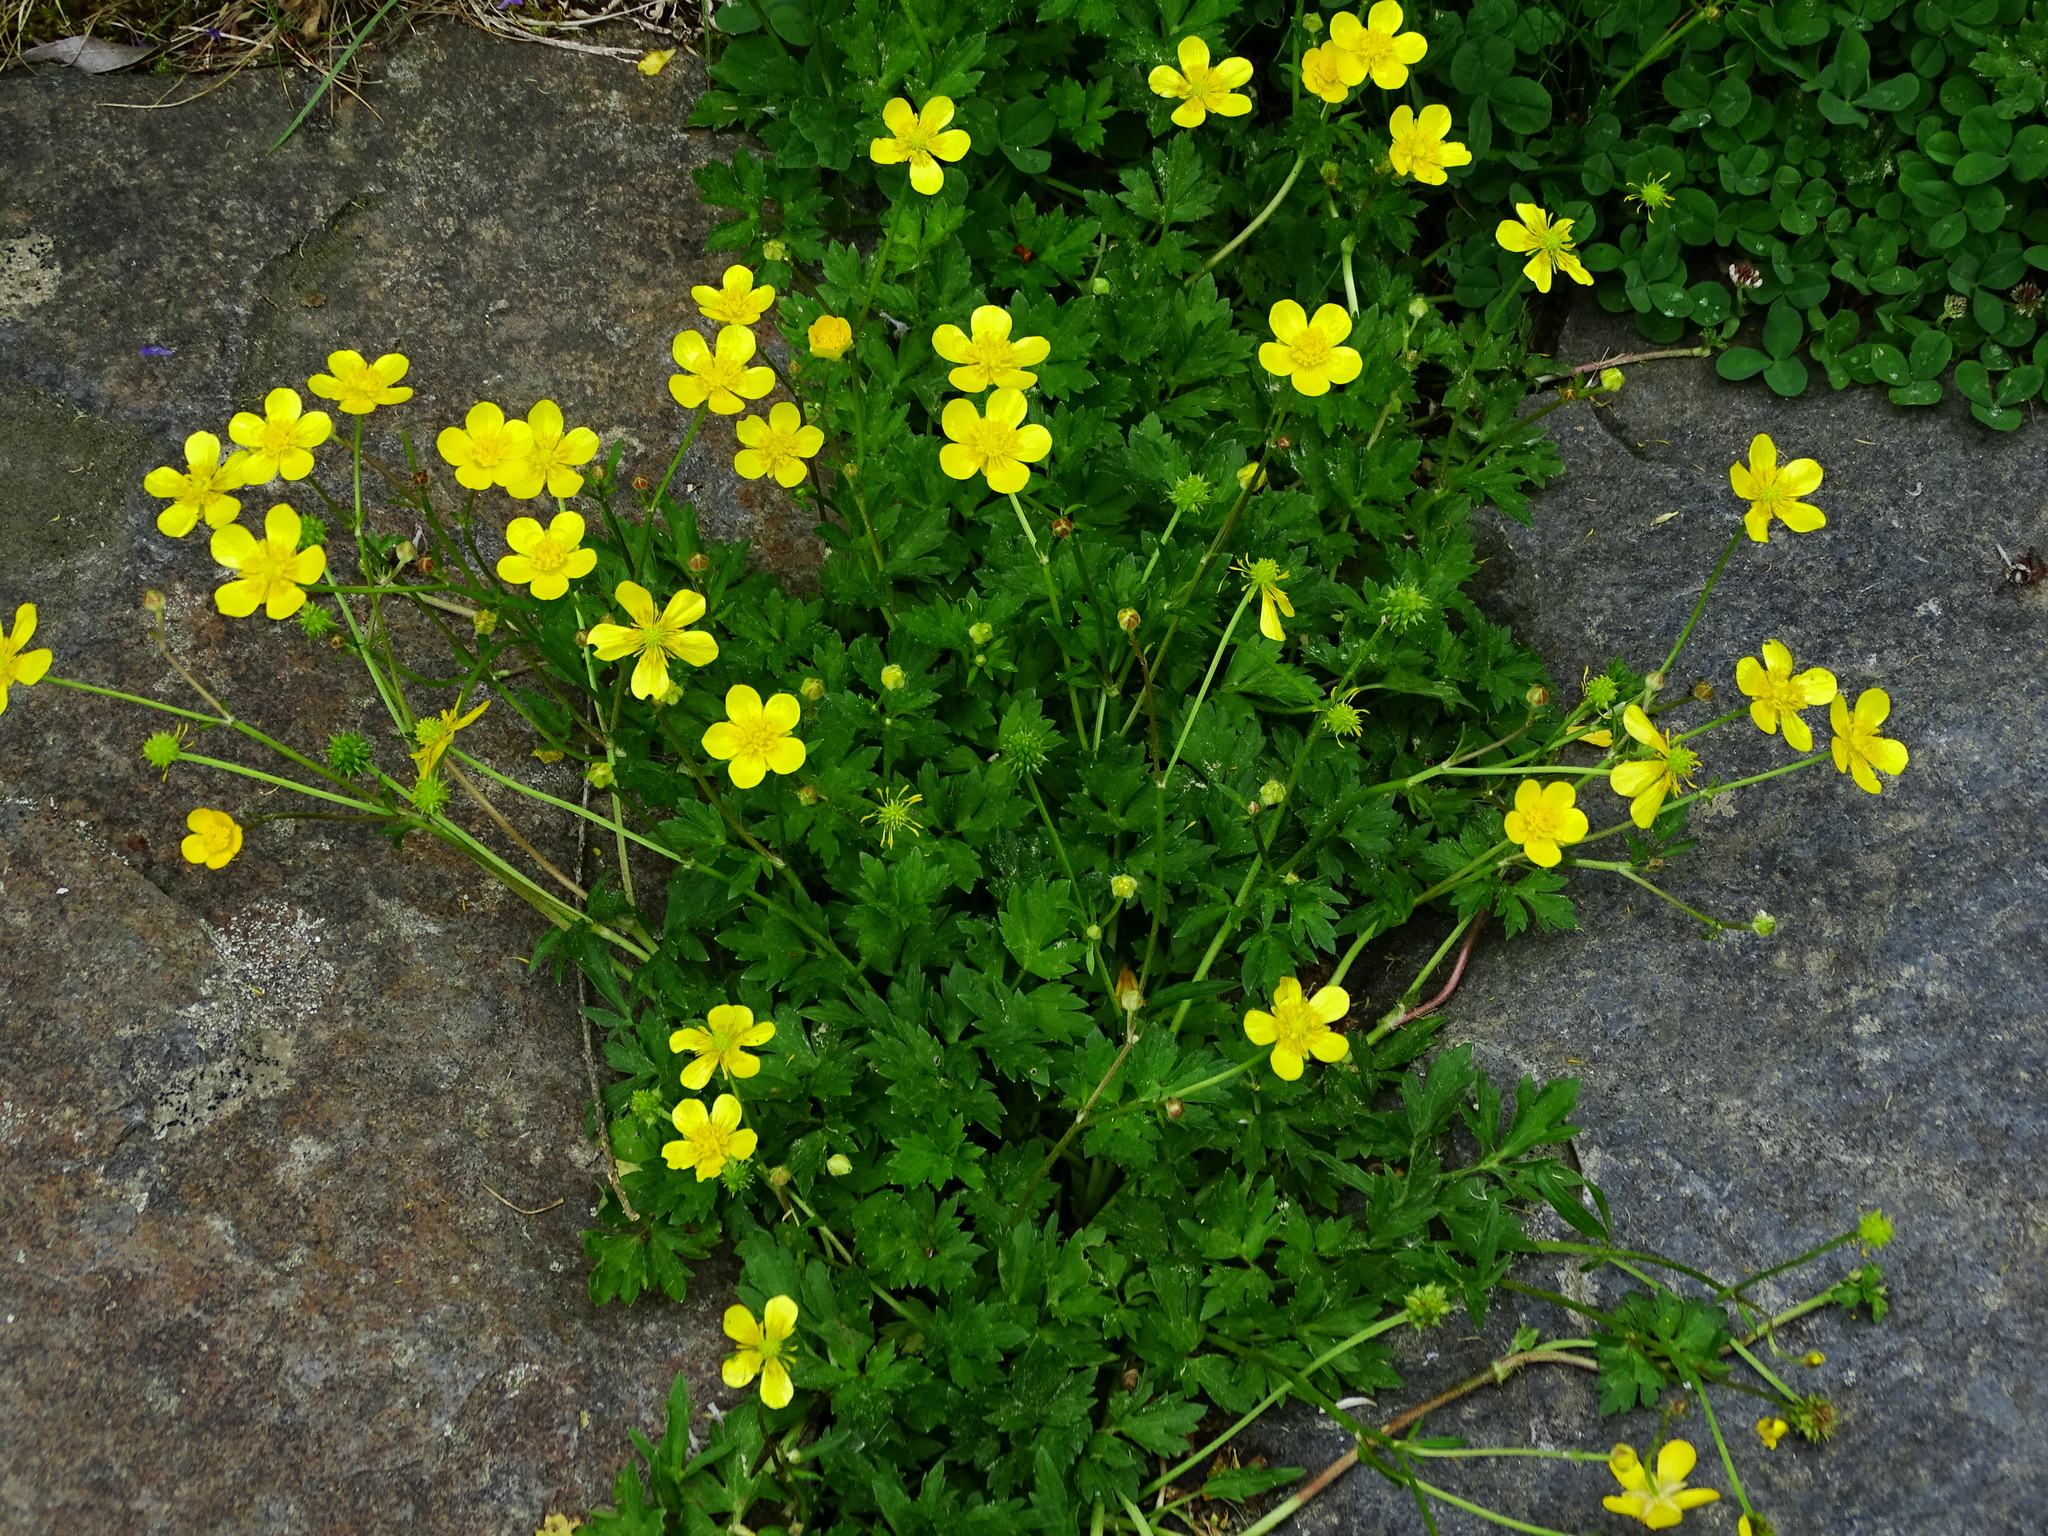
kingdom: Plantae
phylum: Tracheophyta
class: Magnoliopsida
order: Ranunculales
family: Ranunculaceae
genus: Ranunculus
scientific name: Ranunculus repens
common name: Creeping buttercup
